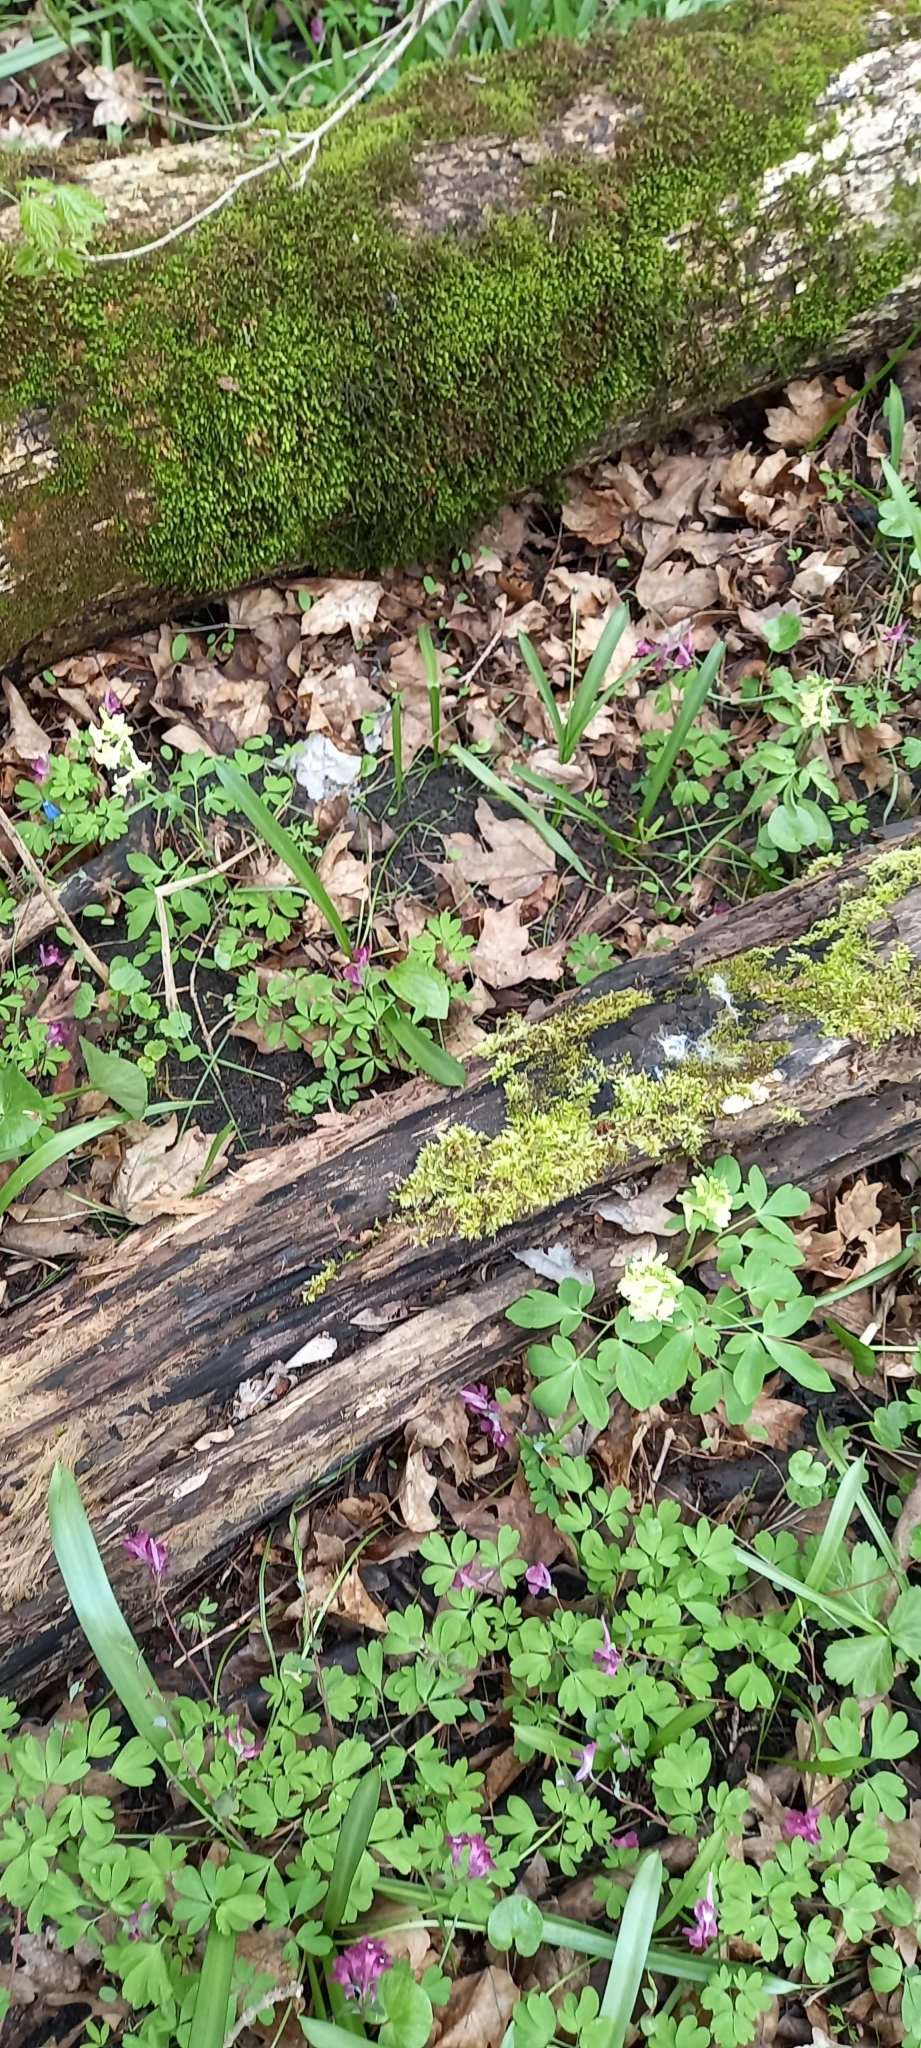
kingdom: Plantae
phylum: Tracheophyta
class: Magnoliopsida
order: Ranunculales
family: Papaveraceae
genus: Corydalis
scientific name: Corydalis cava
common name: Hollowroot
